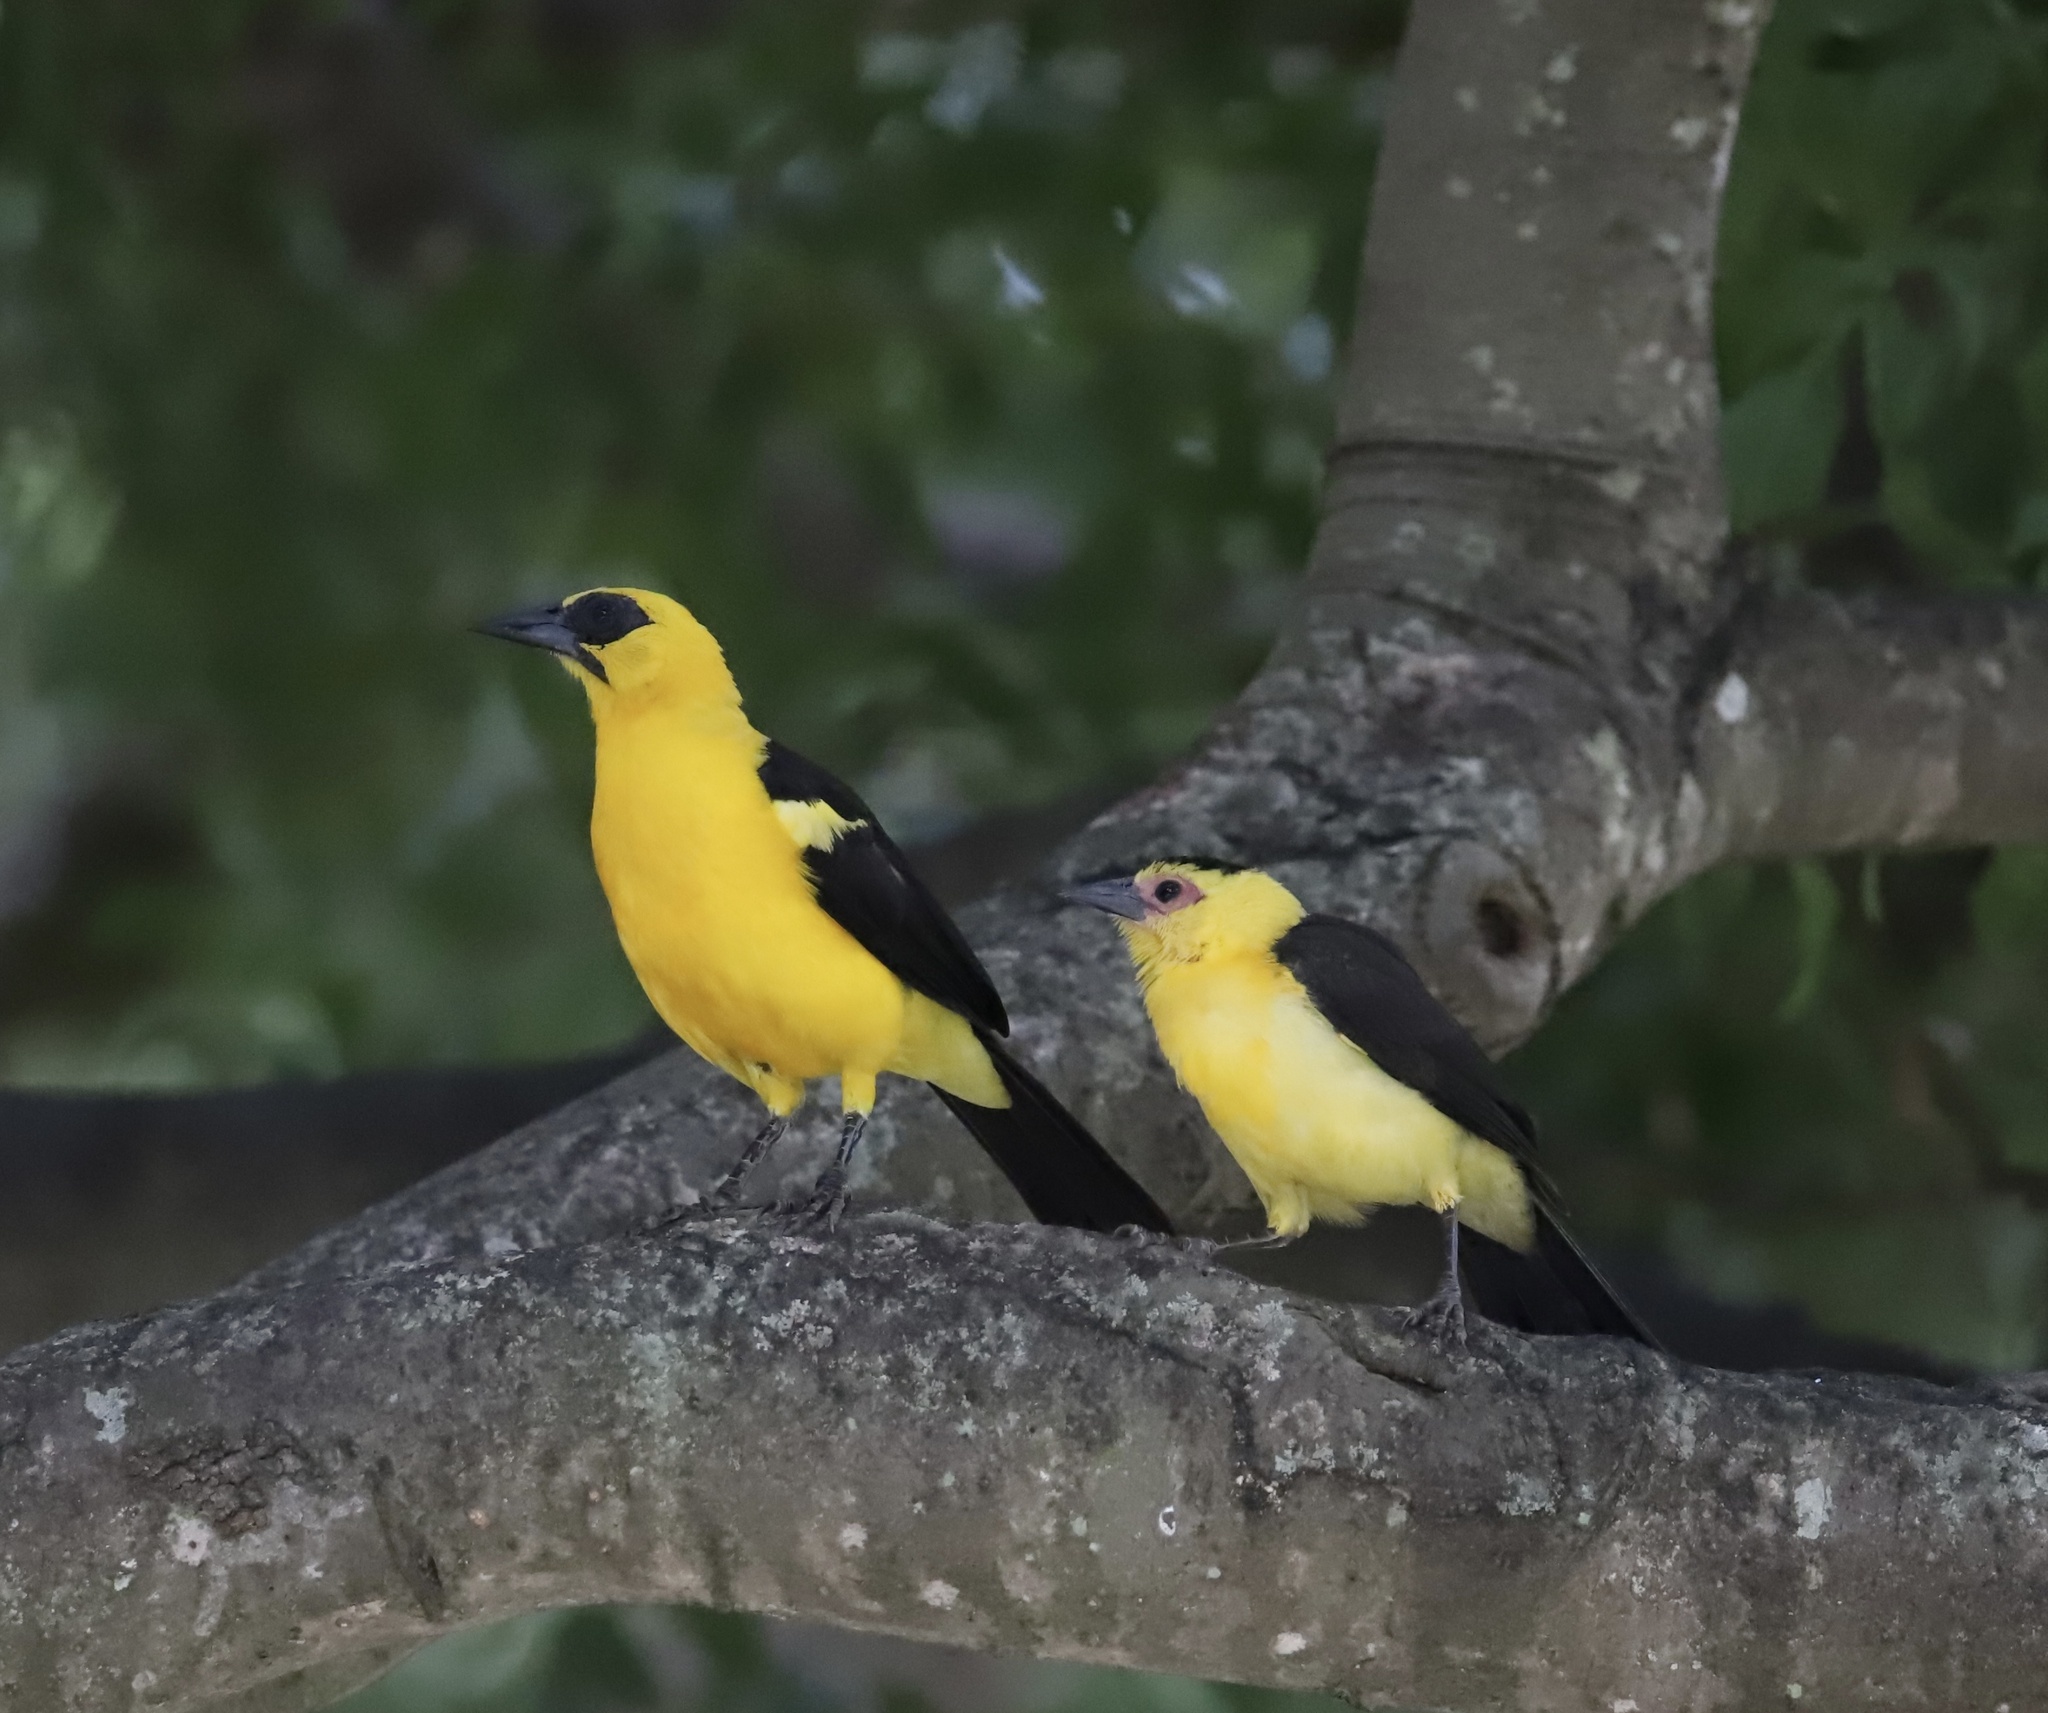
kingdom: Animalia
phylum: Chordata
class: Aves
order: Passeriformes
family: Icteridae
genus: Gymnomystax
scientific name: Gymnomystax mexicanus
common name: Oriole blackbird
